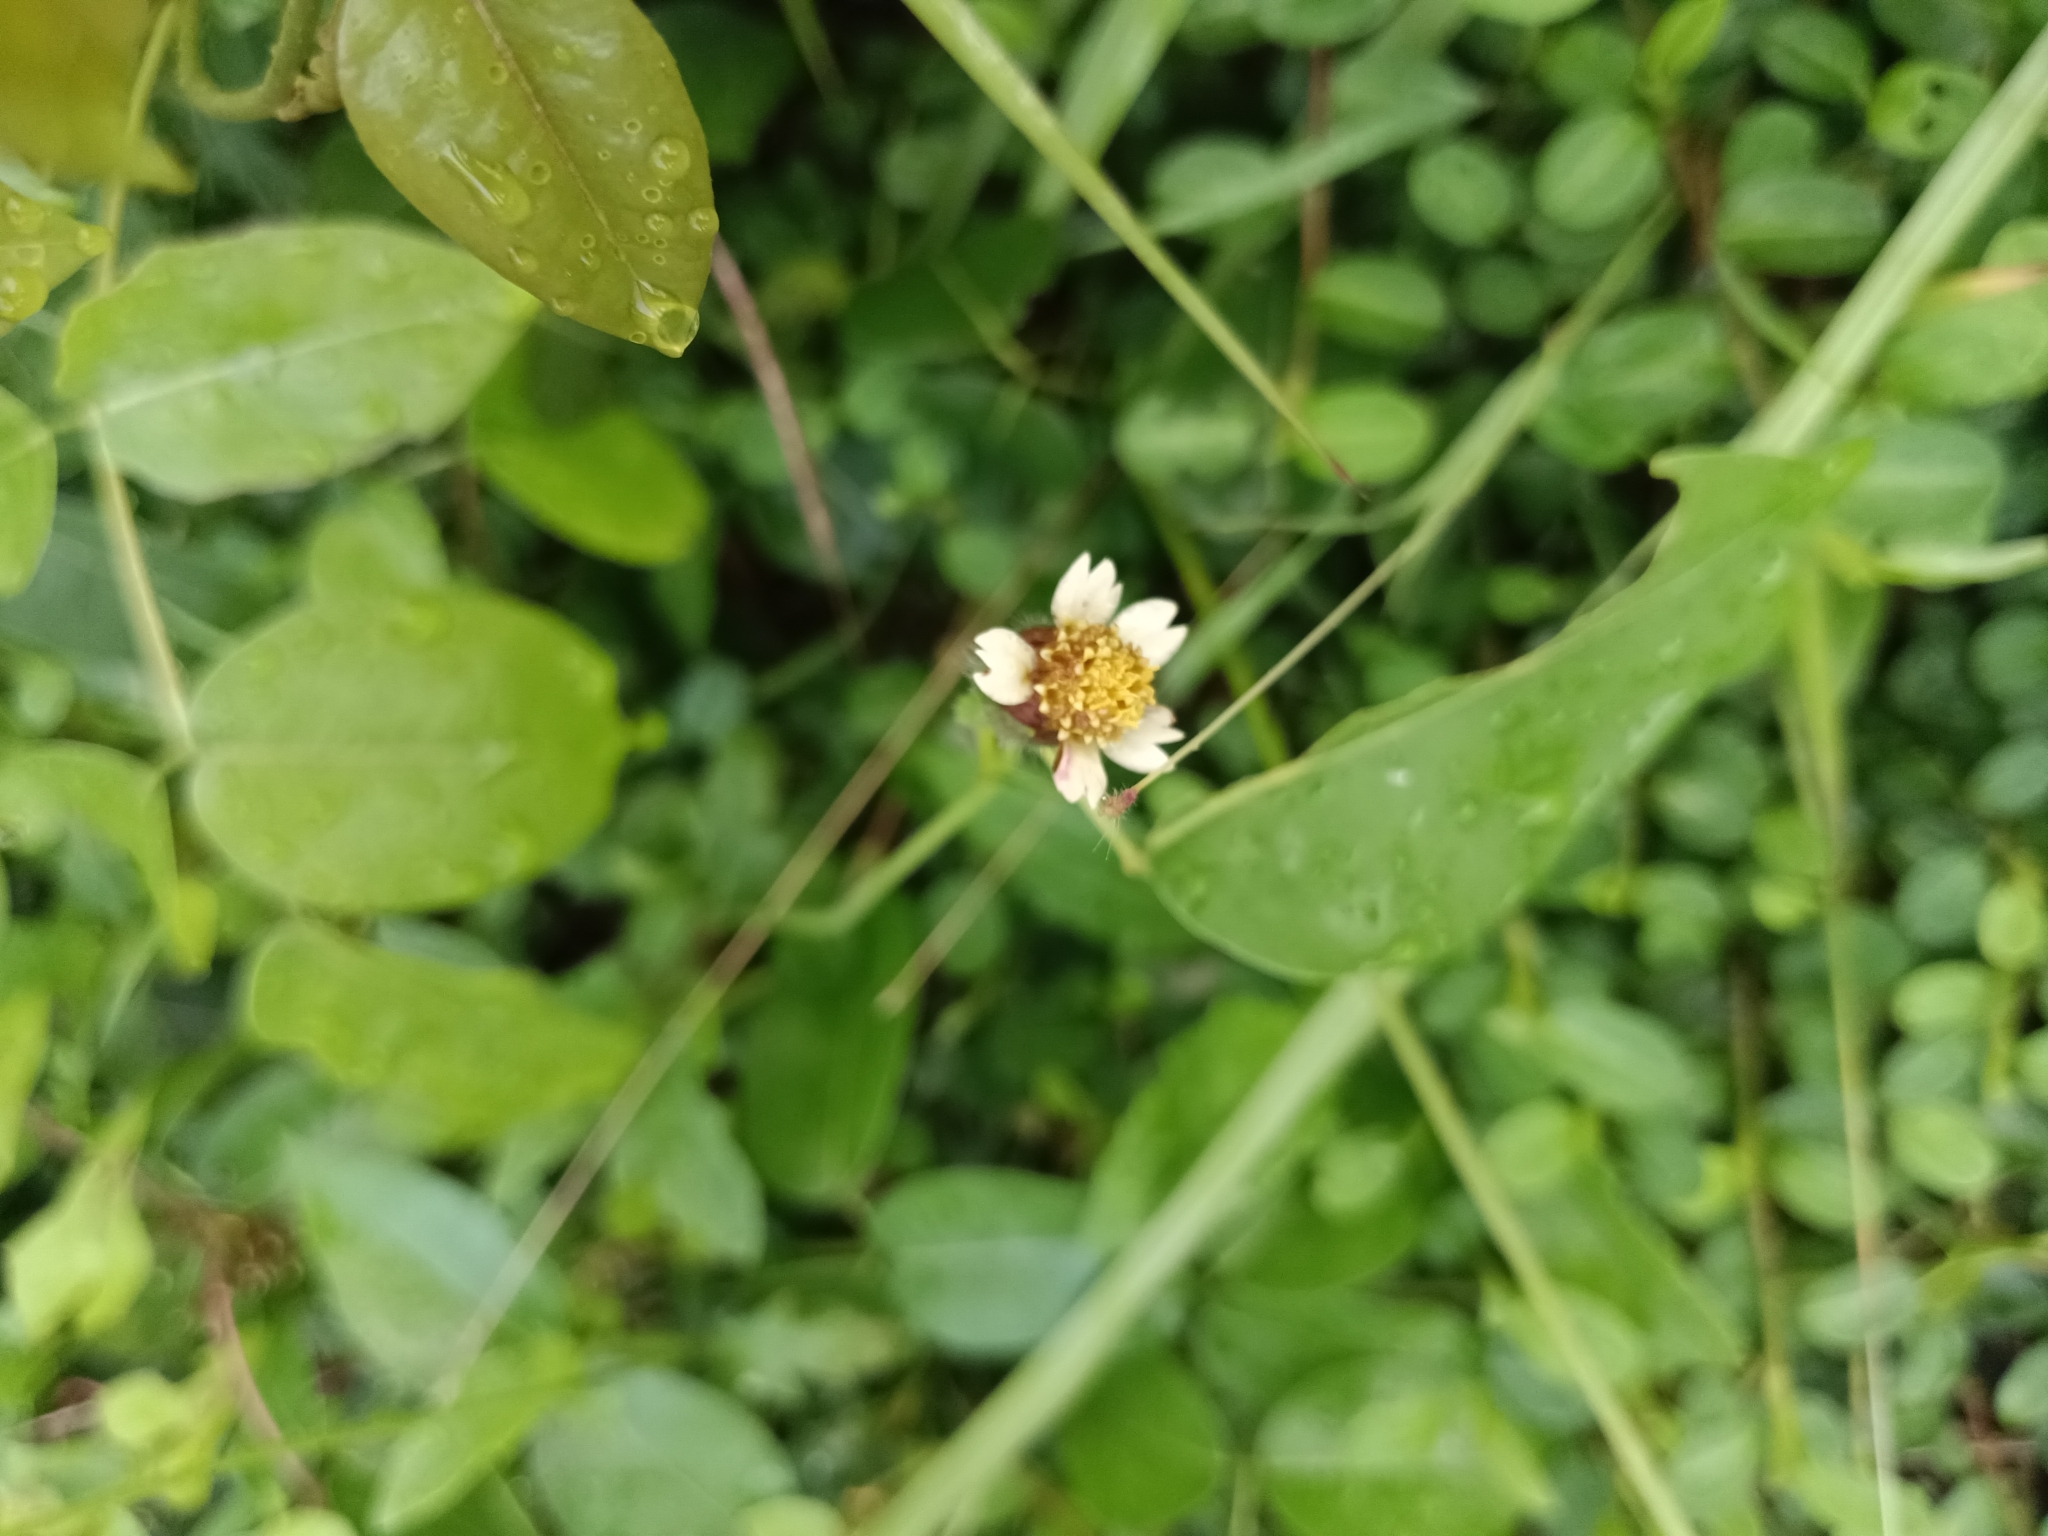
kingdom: Plantae
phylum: Tracheophyta
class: Magnoliopsida
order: Asterales
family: Asteraceae
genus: Tridax
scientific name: Tridax procumbens
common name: Coatbuttons
